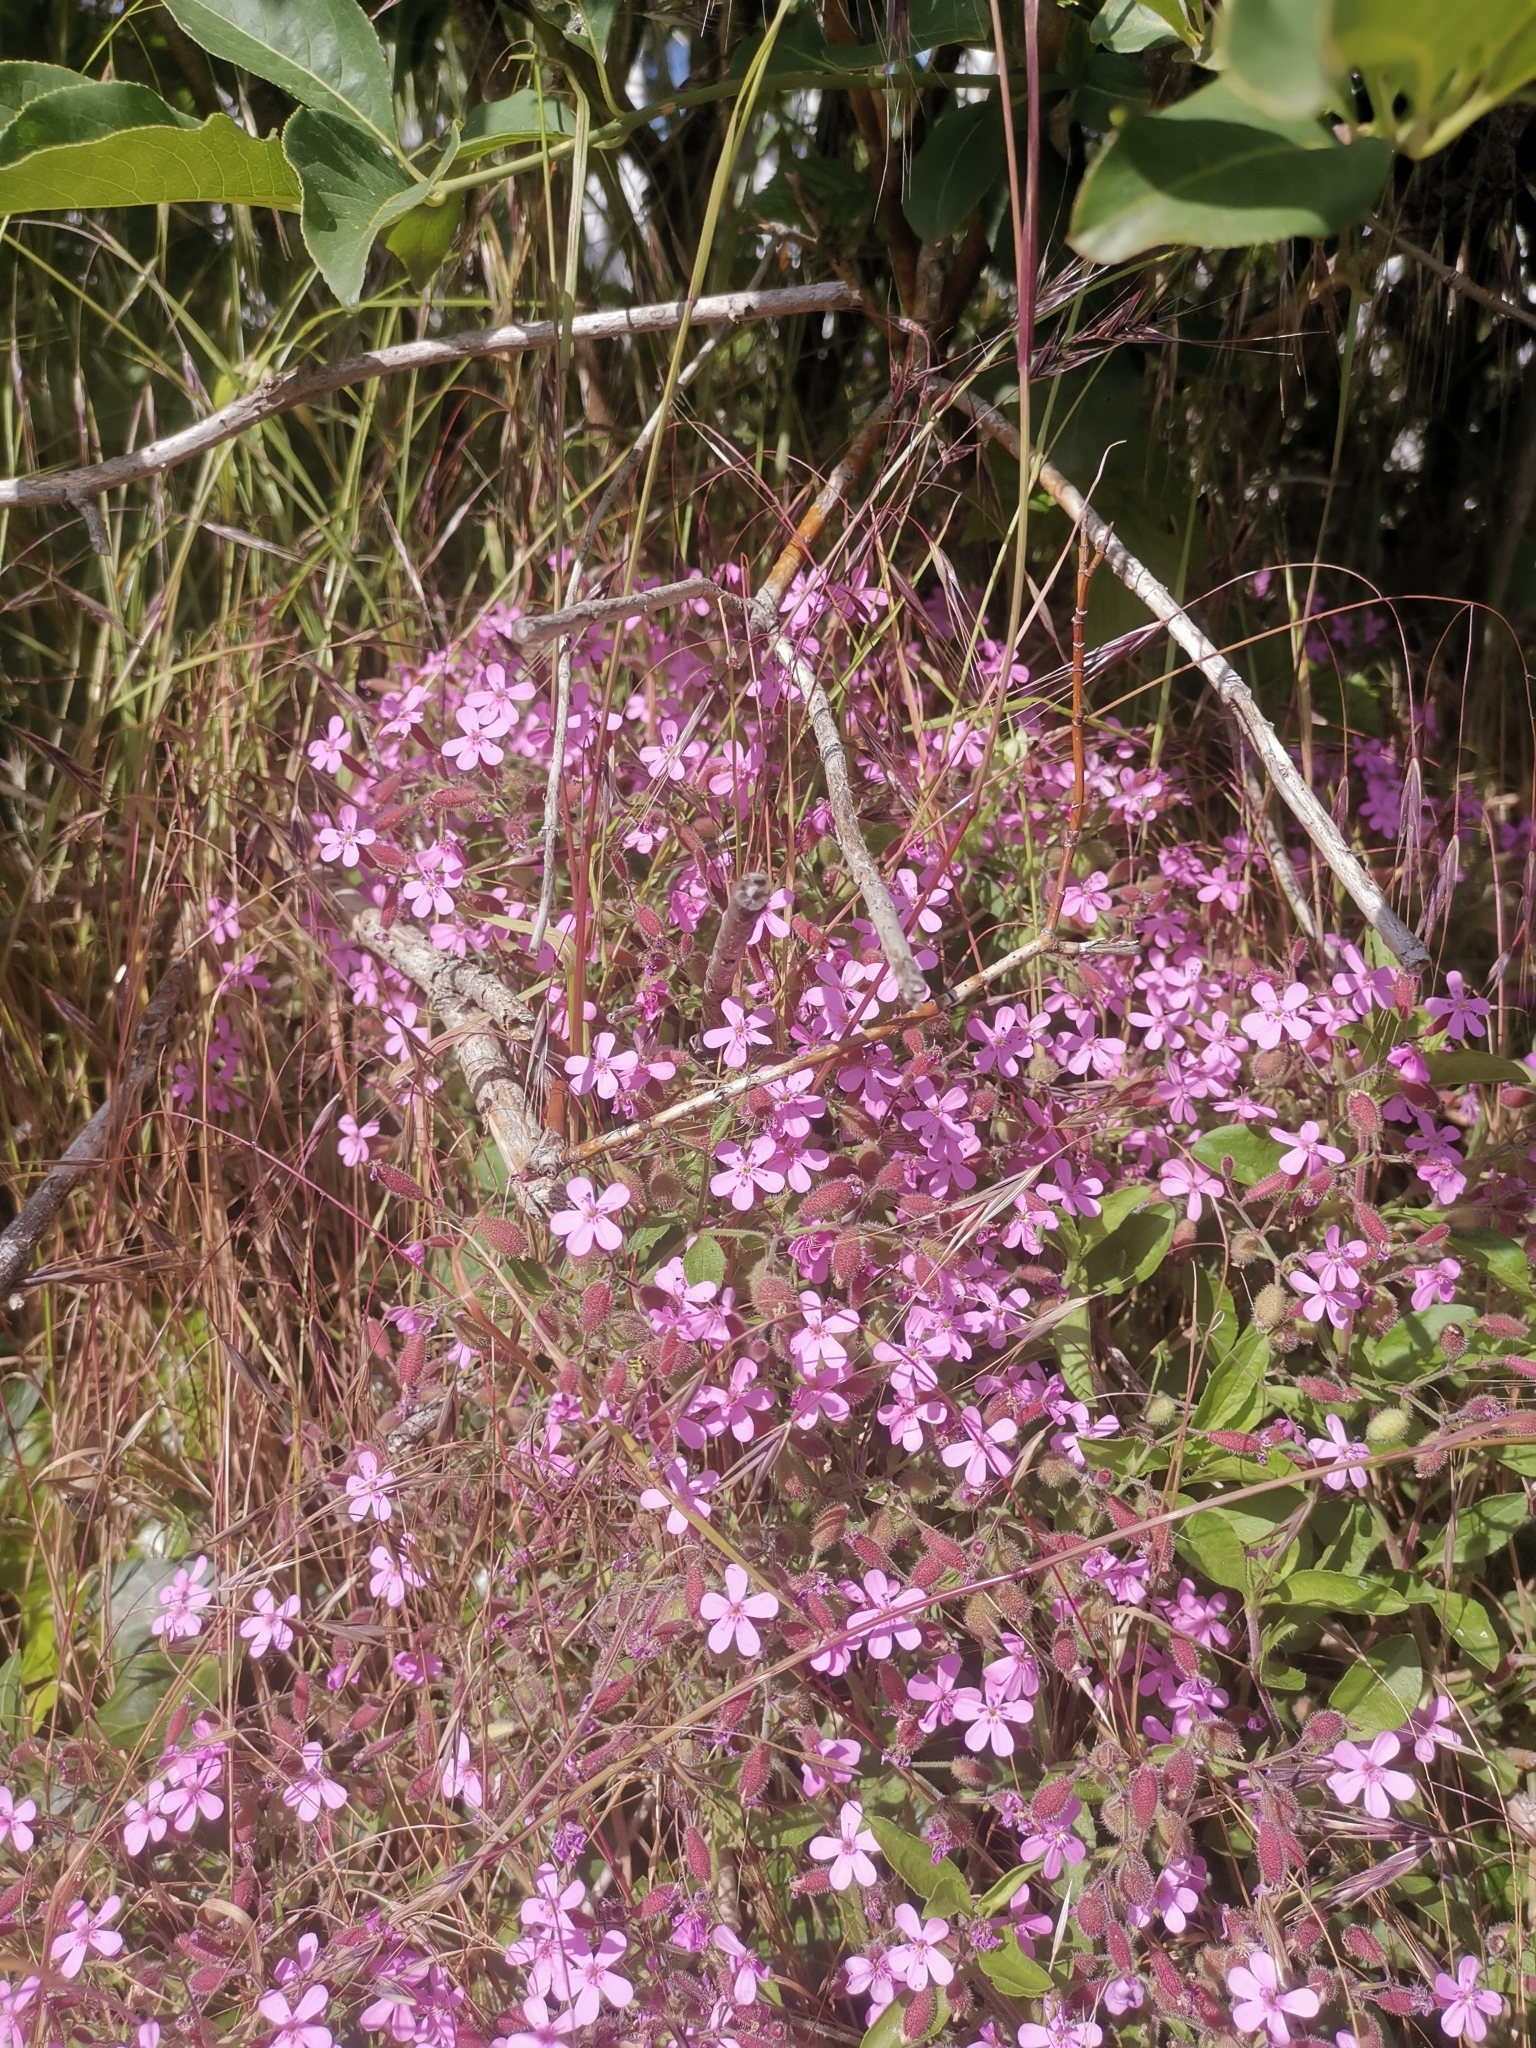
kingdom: Plantae
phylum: Tracheophyta
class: Magnoliopsida
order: Caryophyllales
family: Caryophyllaceae
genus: Saponaria
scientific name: Saponaria ocymoides
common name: Rock soapwort
